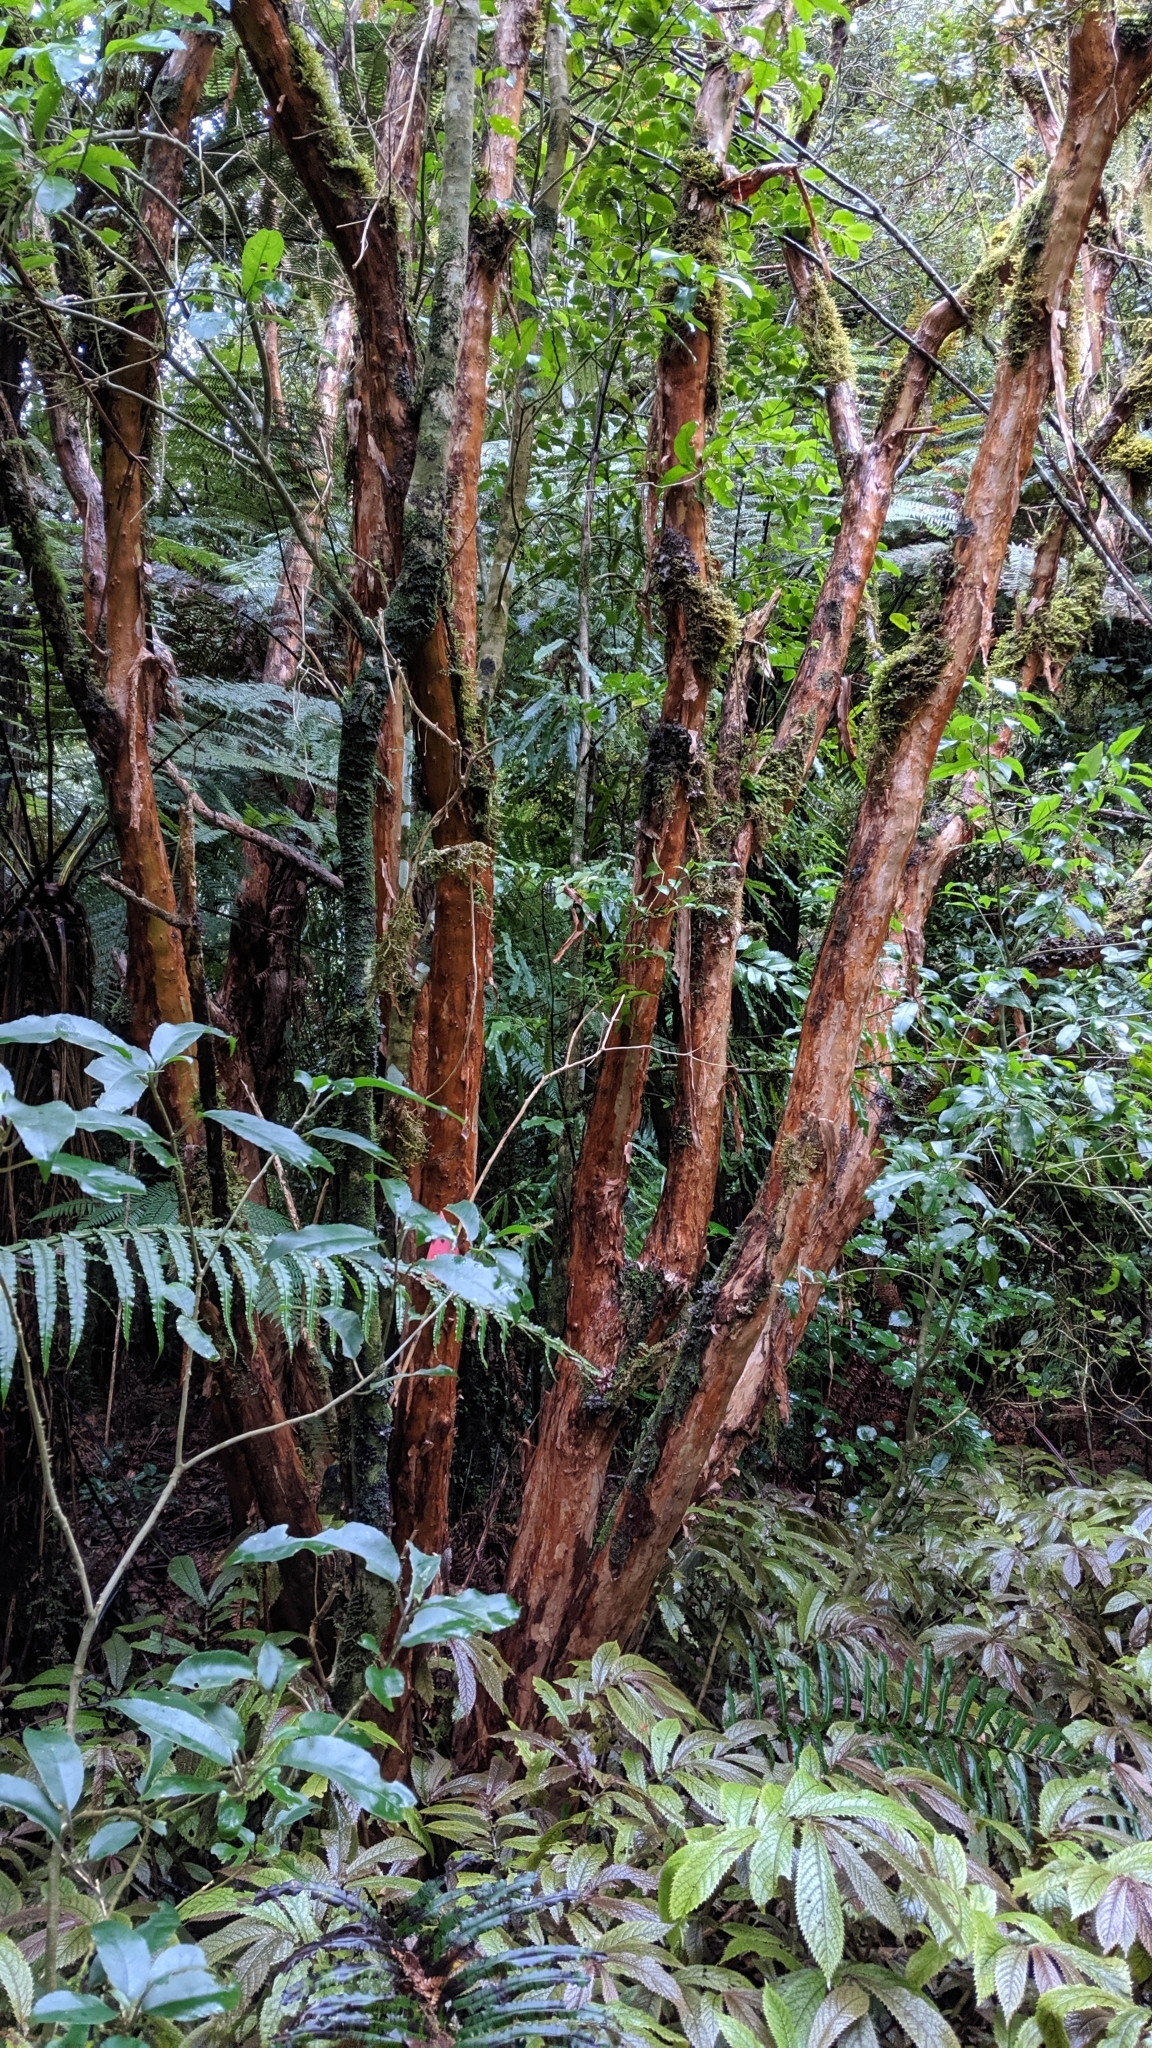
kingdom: Plantae
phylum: Tracheophyta
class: Magnoliopsida
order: Myrtales
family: Onagraceae
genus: Fuchsia
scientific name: Fuchsia excorticata
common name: Tree fuchsia
